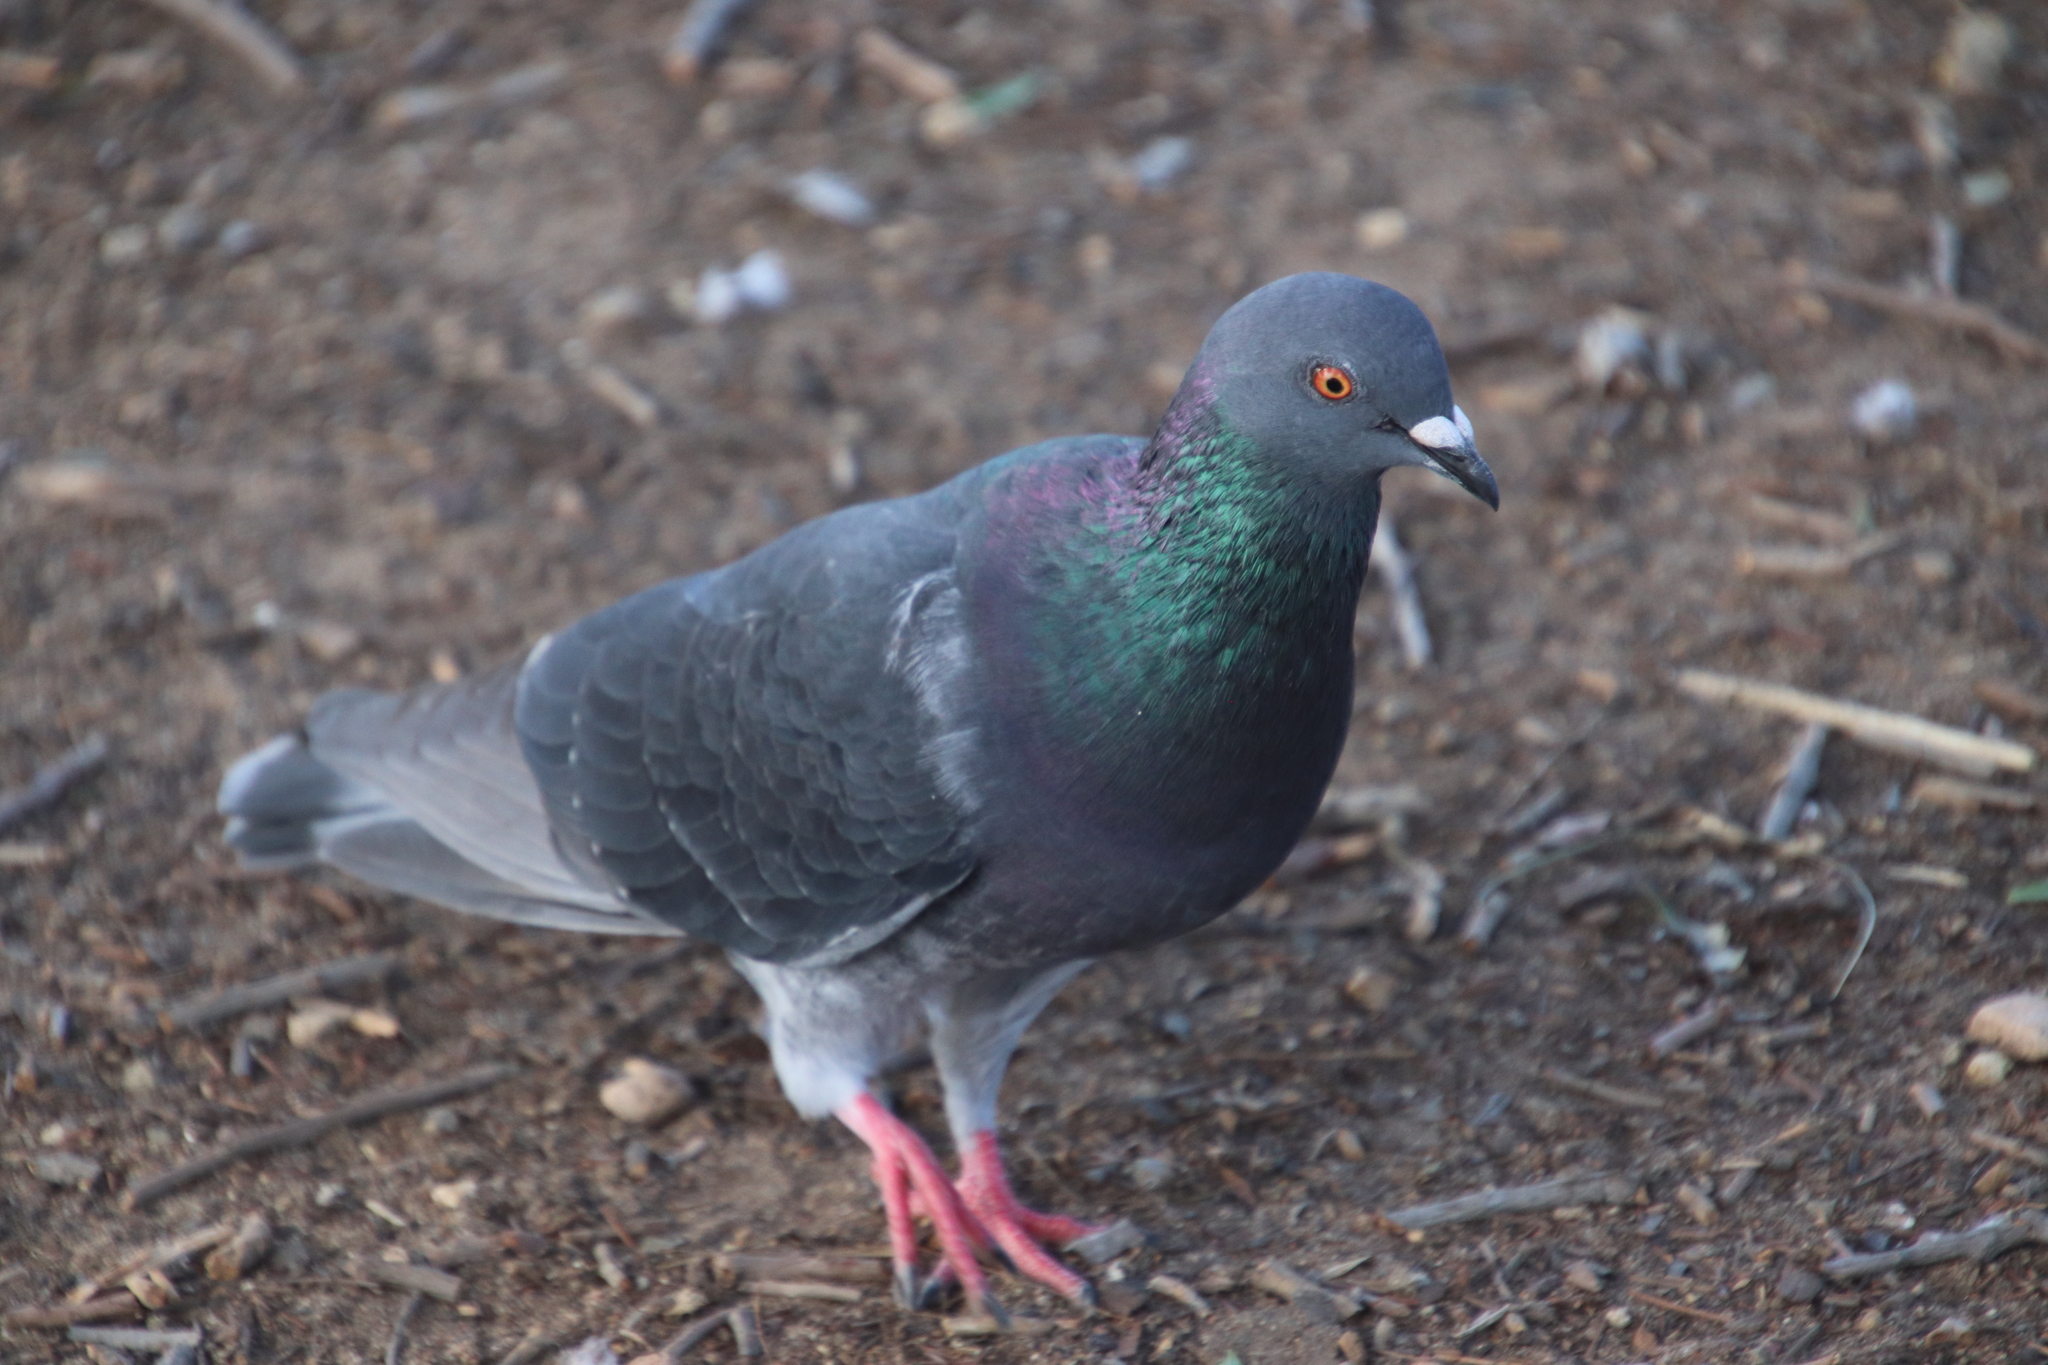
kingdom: Animalia
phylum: Chordata
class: Aves
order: Columbiformes
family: Columbidae
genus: Columba
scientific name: Columba livia
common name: Rock pigeon
